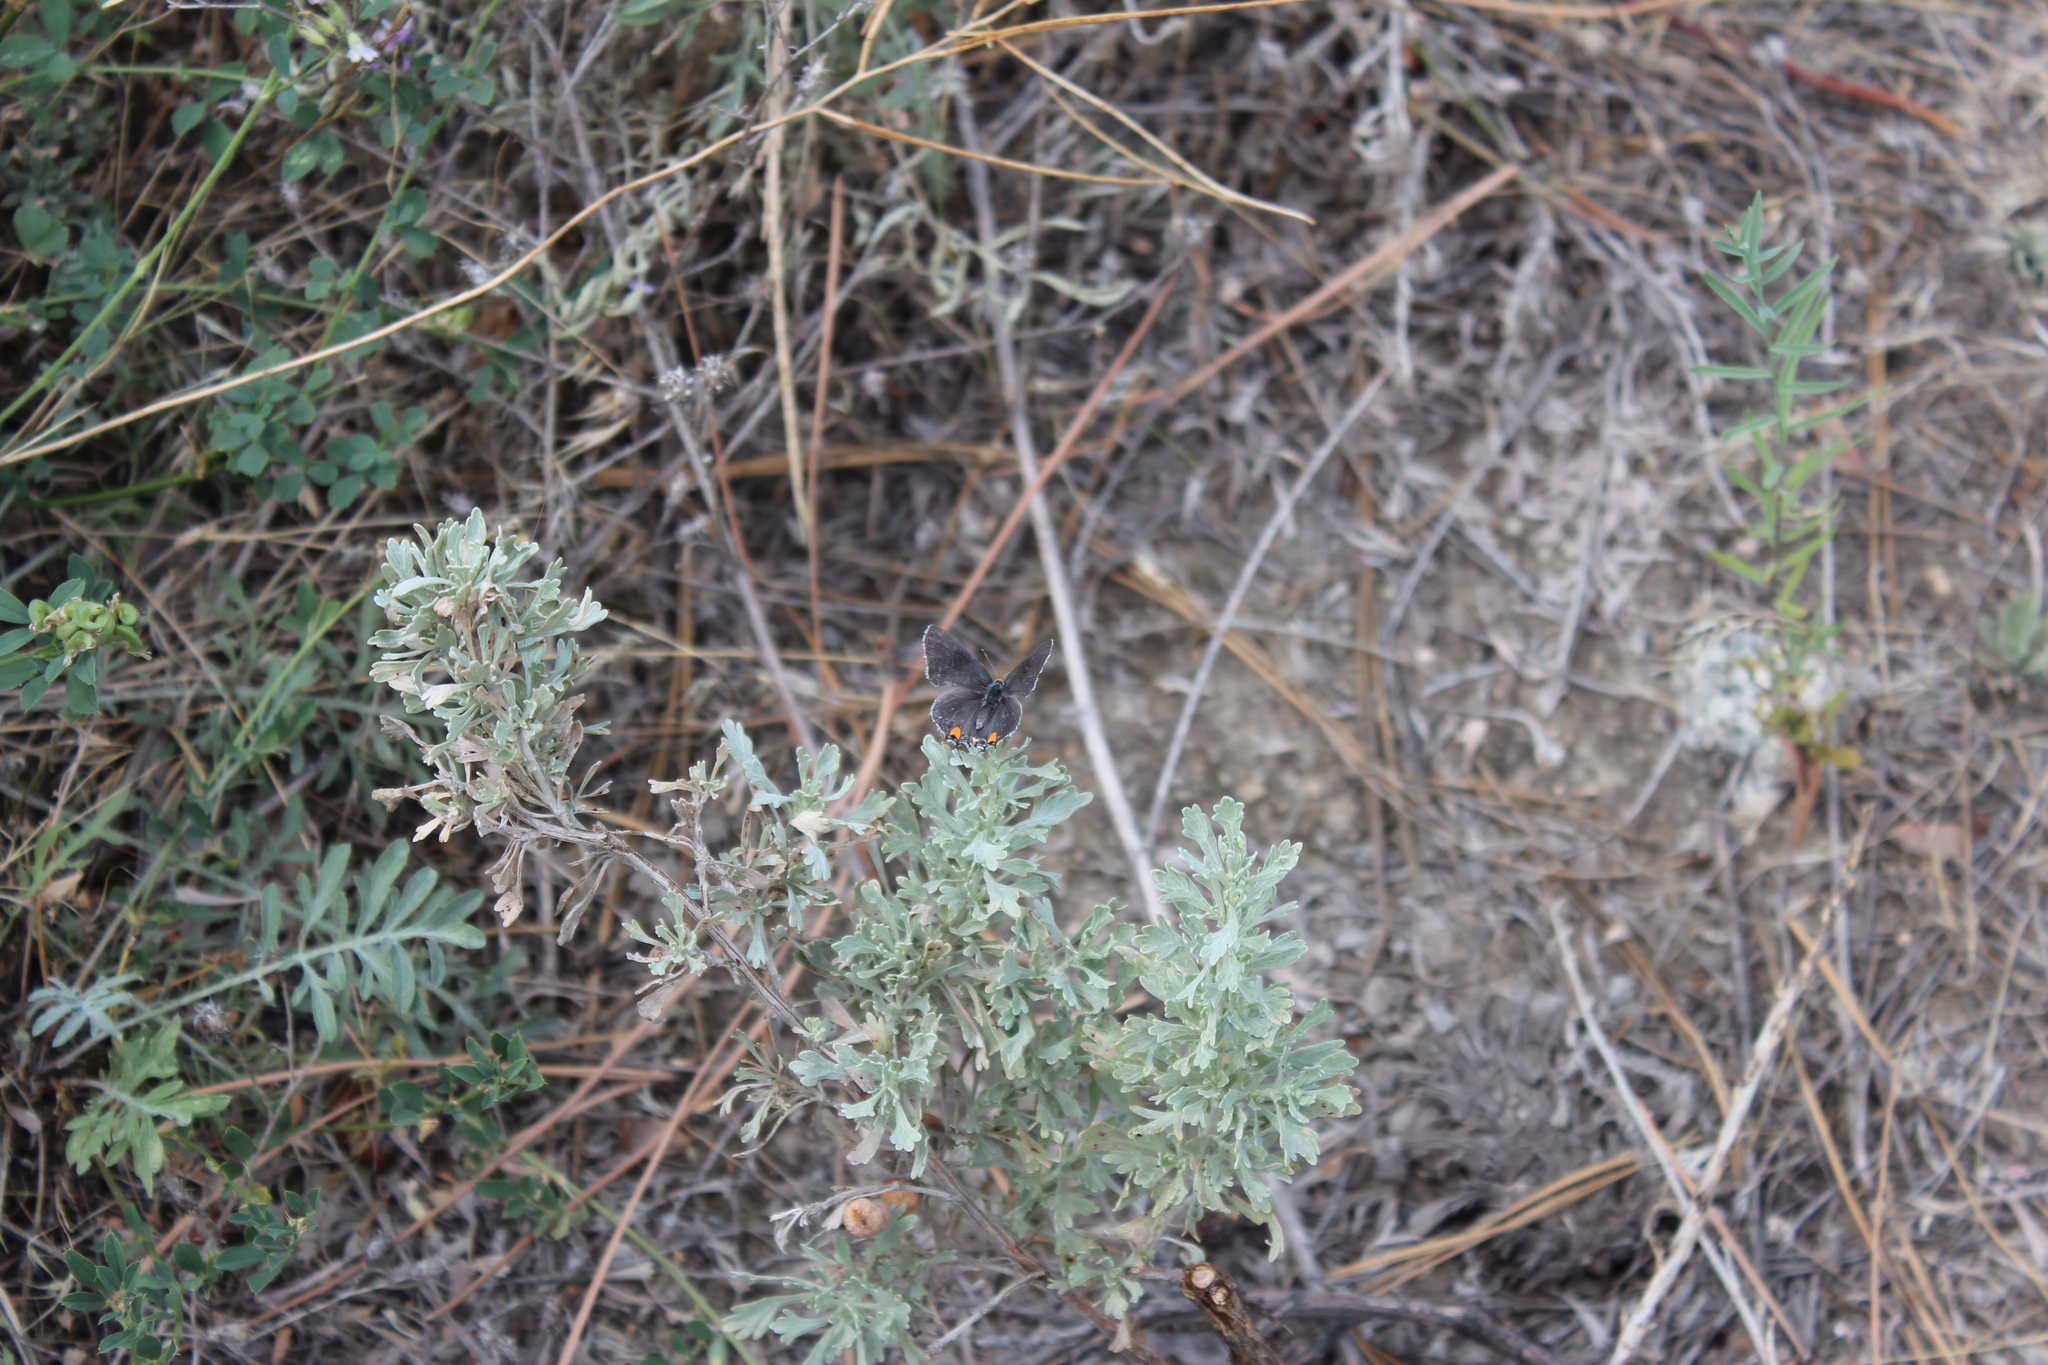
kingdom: Animalia
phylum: Arthropoda
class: Insecta
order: Lepidoptera
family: Lycaenidae
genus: Strymon
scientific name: Strymon melinus
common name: Gray hairstreak
